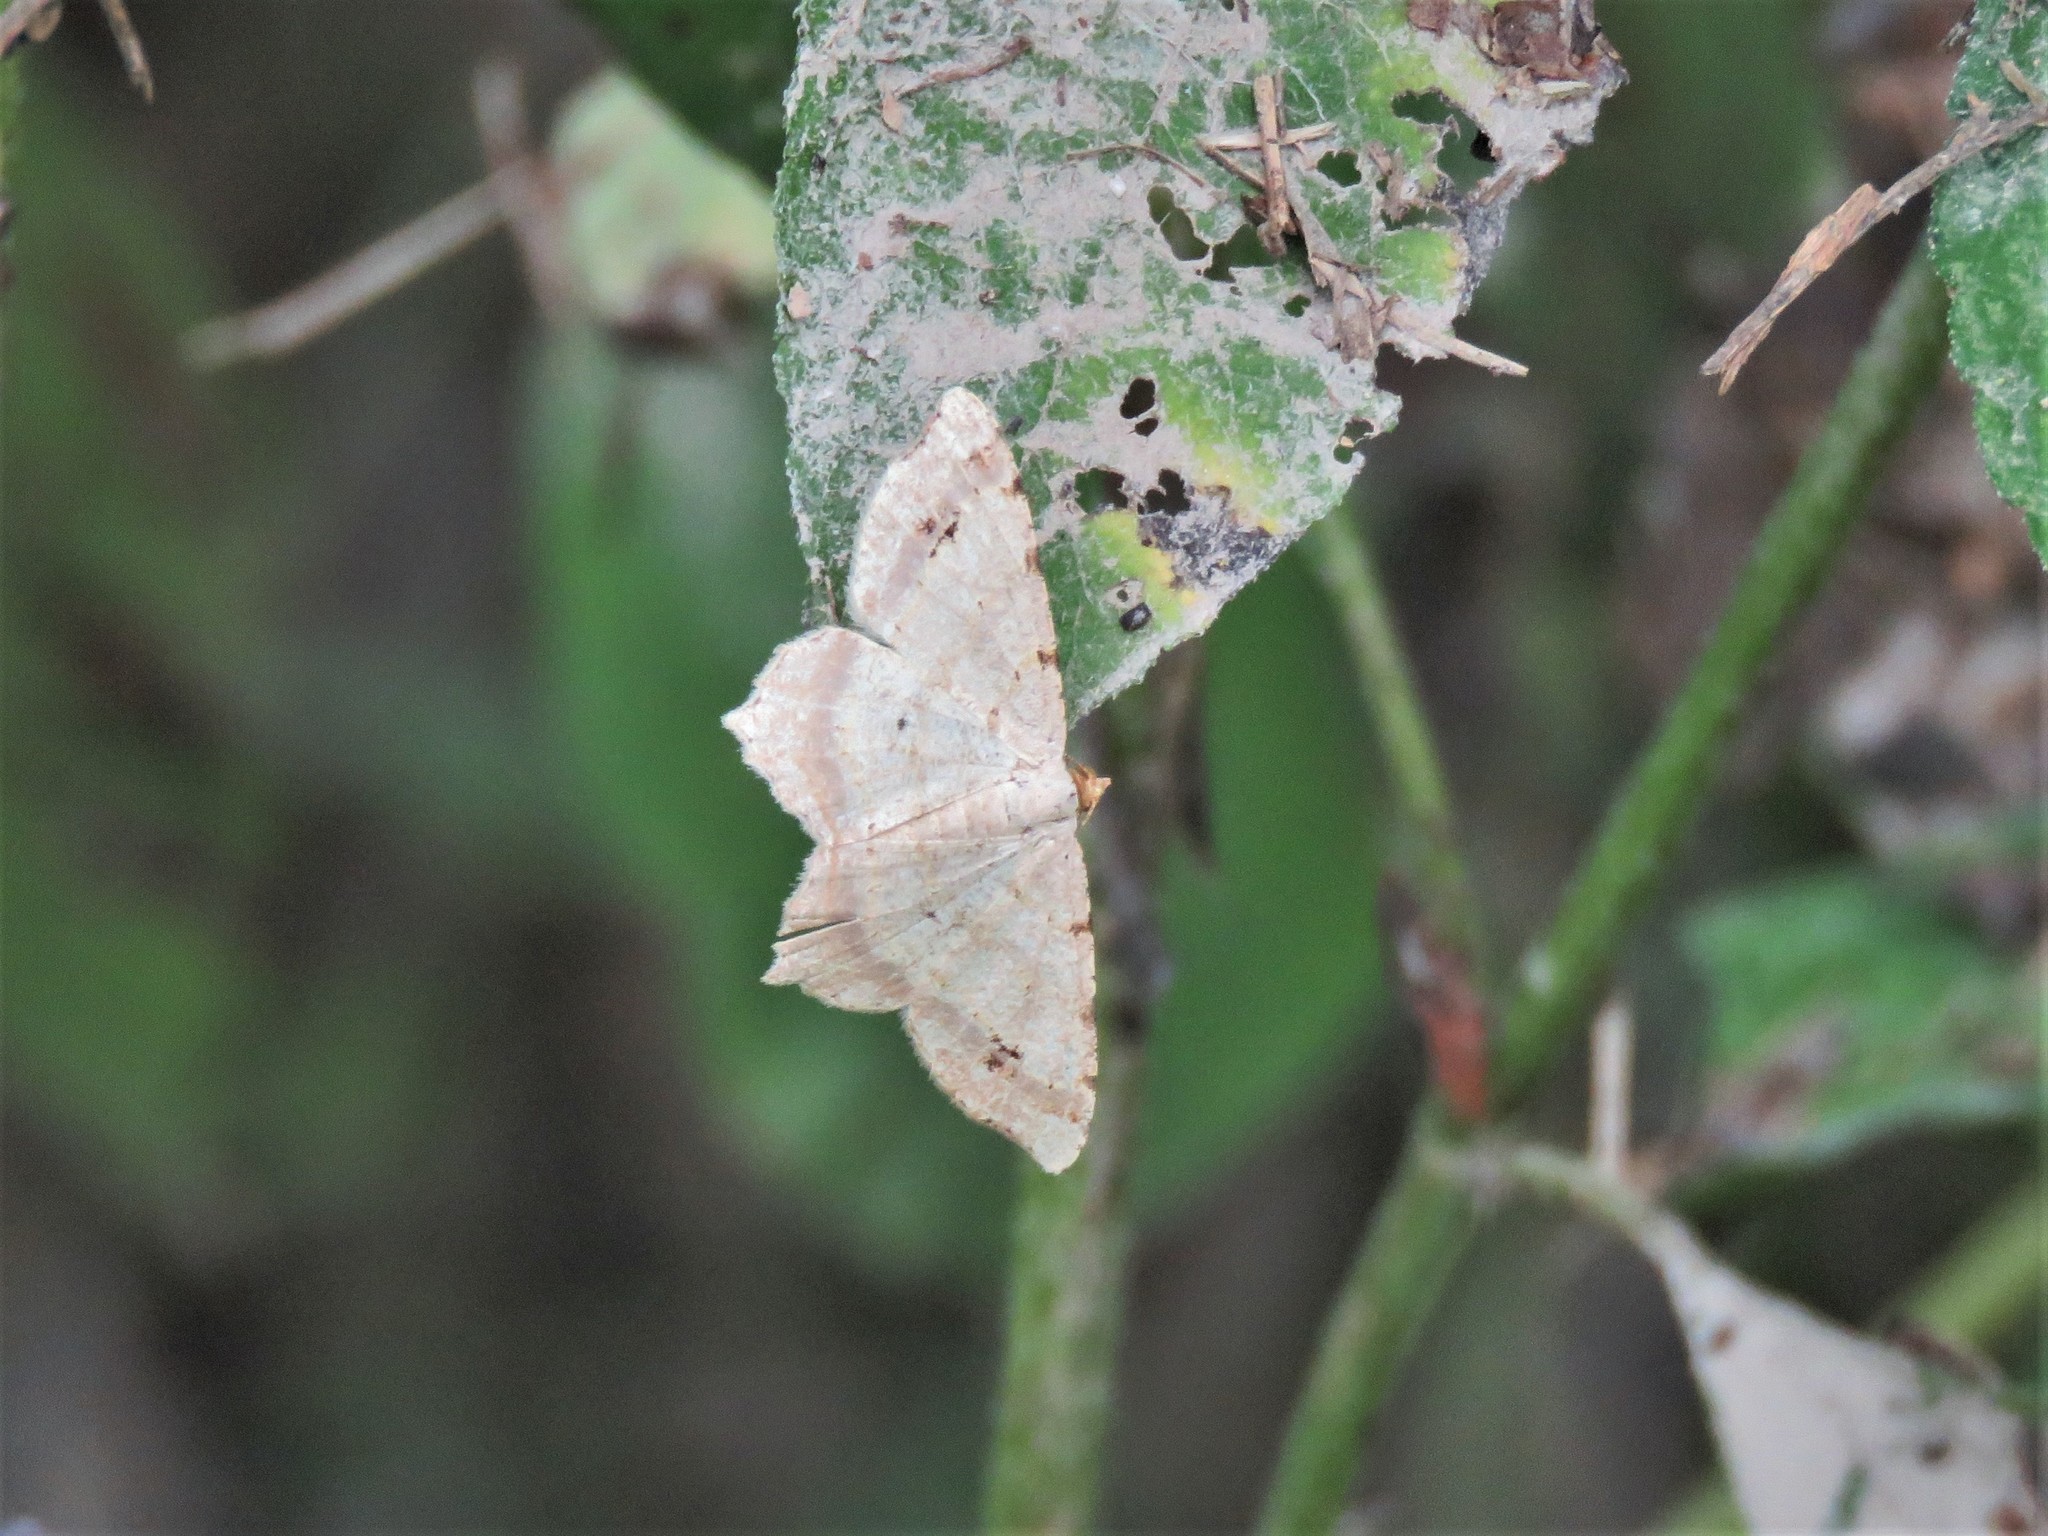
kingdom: Animalia
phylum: Arthropoda
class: Insecta
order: Lepidoptera
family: Geometridae
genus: Macaria
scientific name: Macaria abydata
